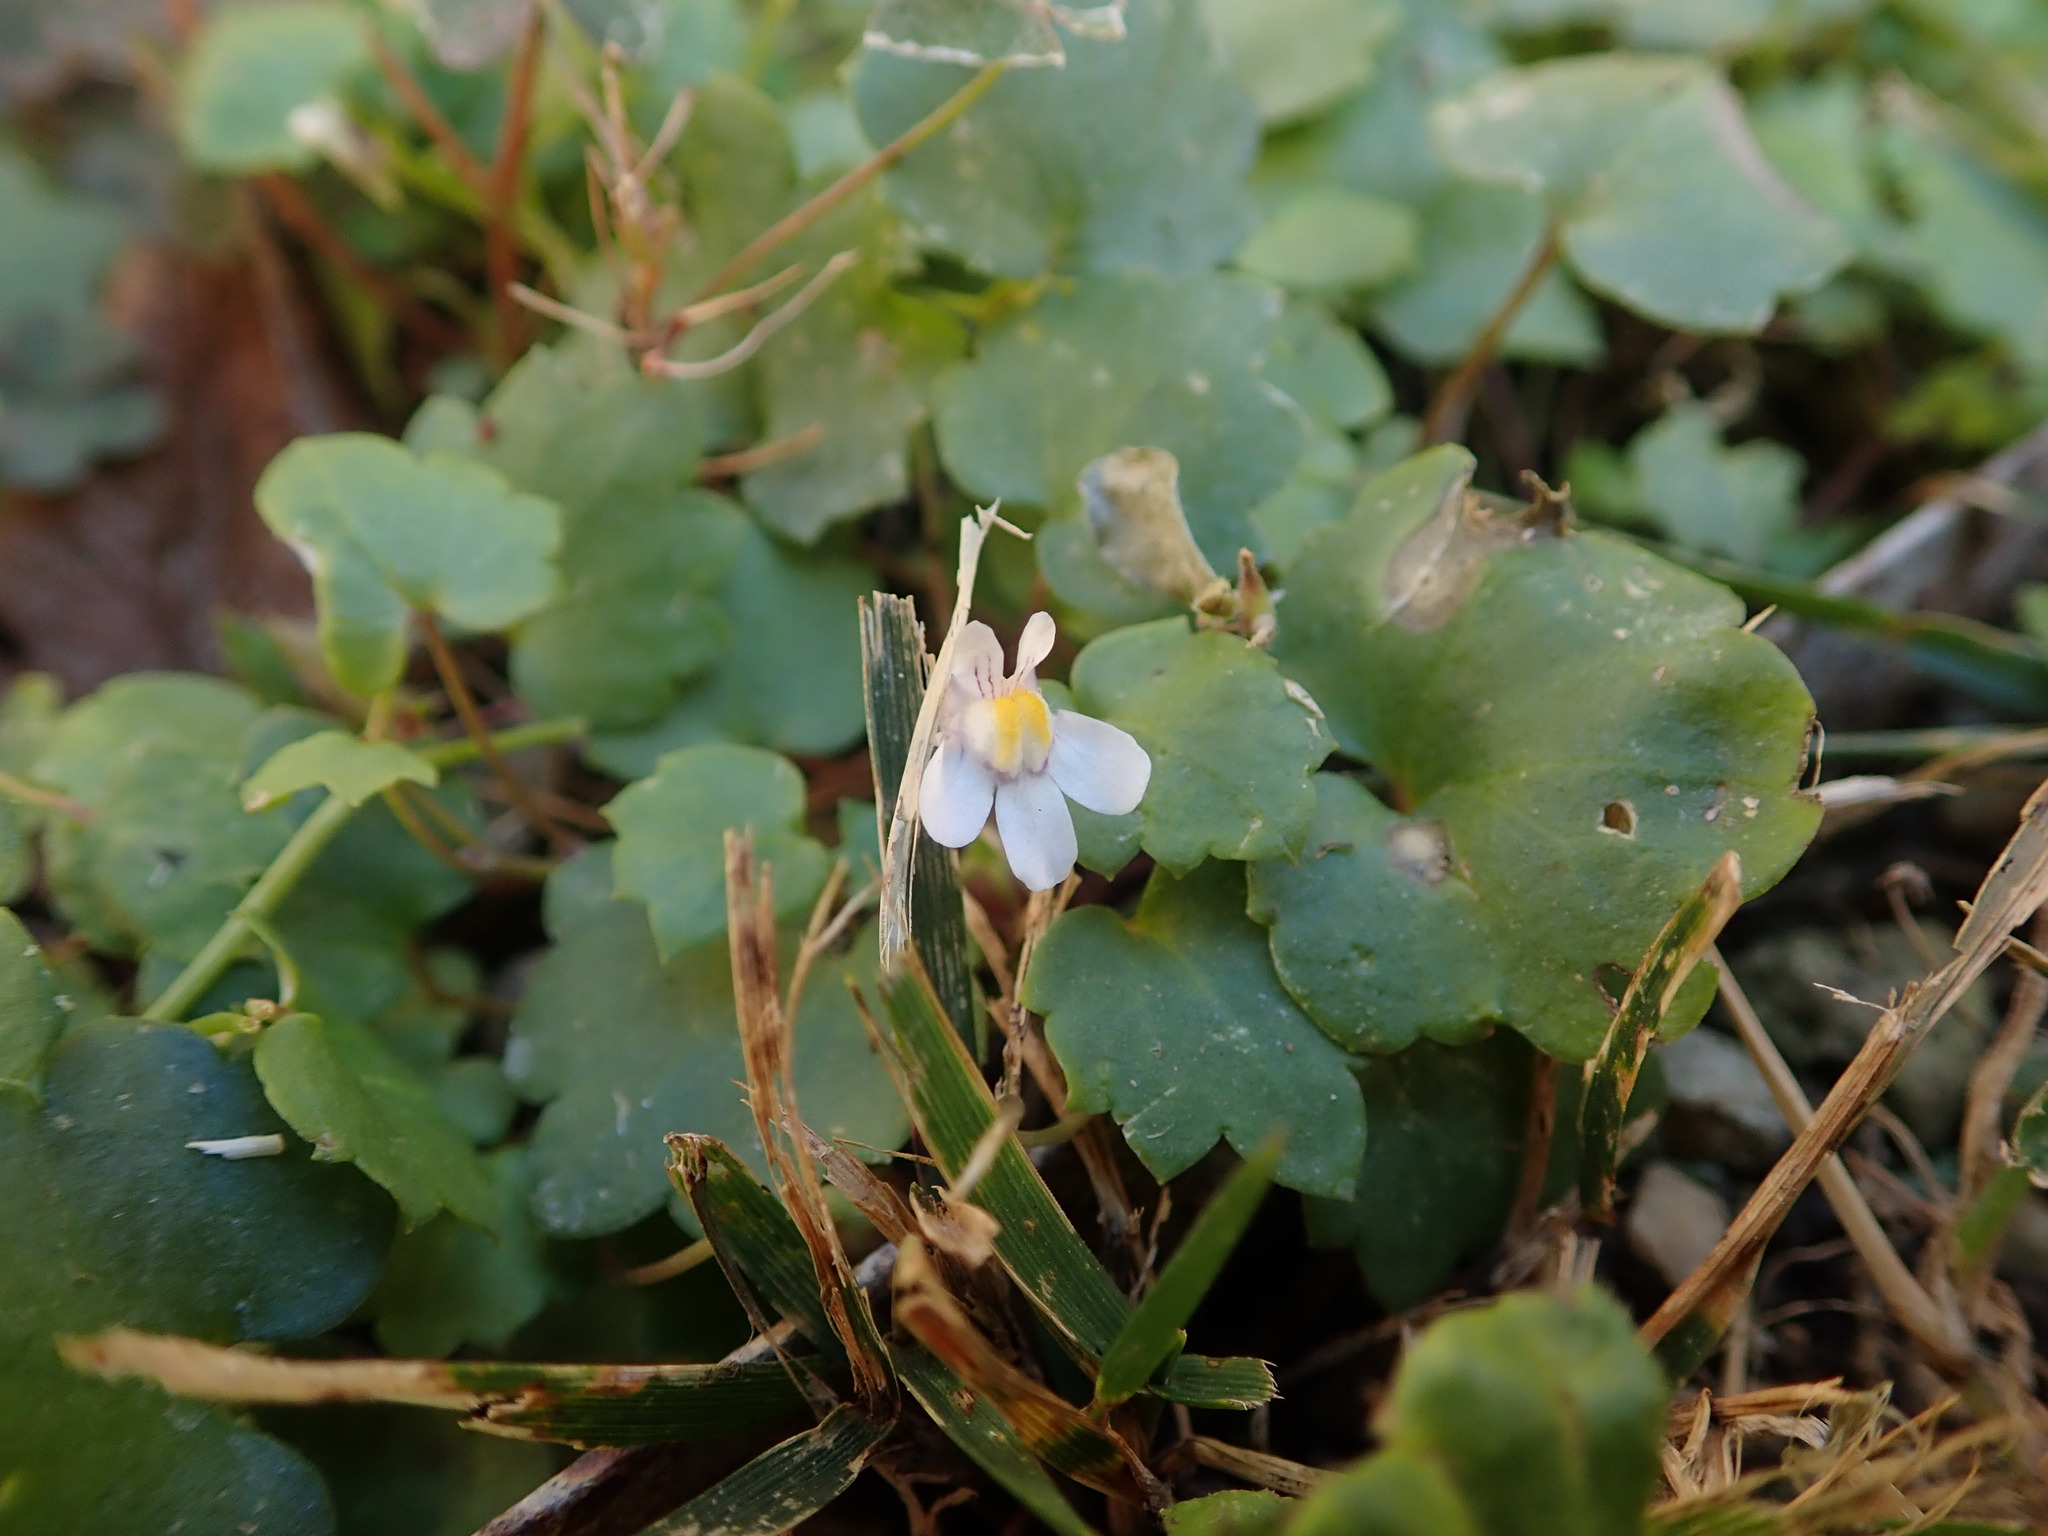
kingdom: Plantae
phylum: Tracheophyta
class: Magnoliopsida
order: Lamiales
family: Plantaginaceae
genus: Cymbalaria
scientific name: Cymbalaria muralis
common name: Ivy-leaved toadflax
